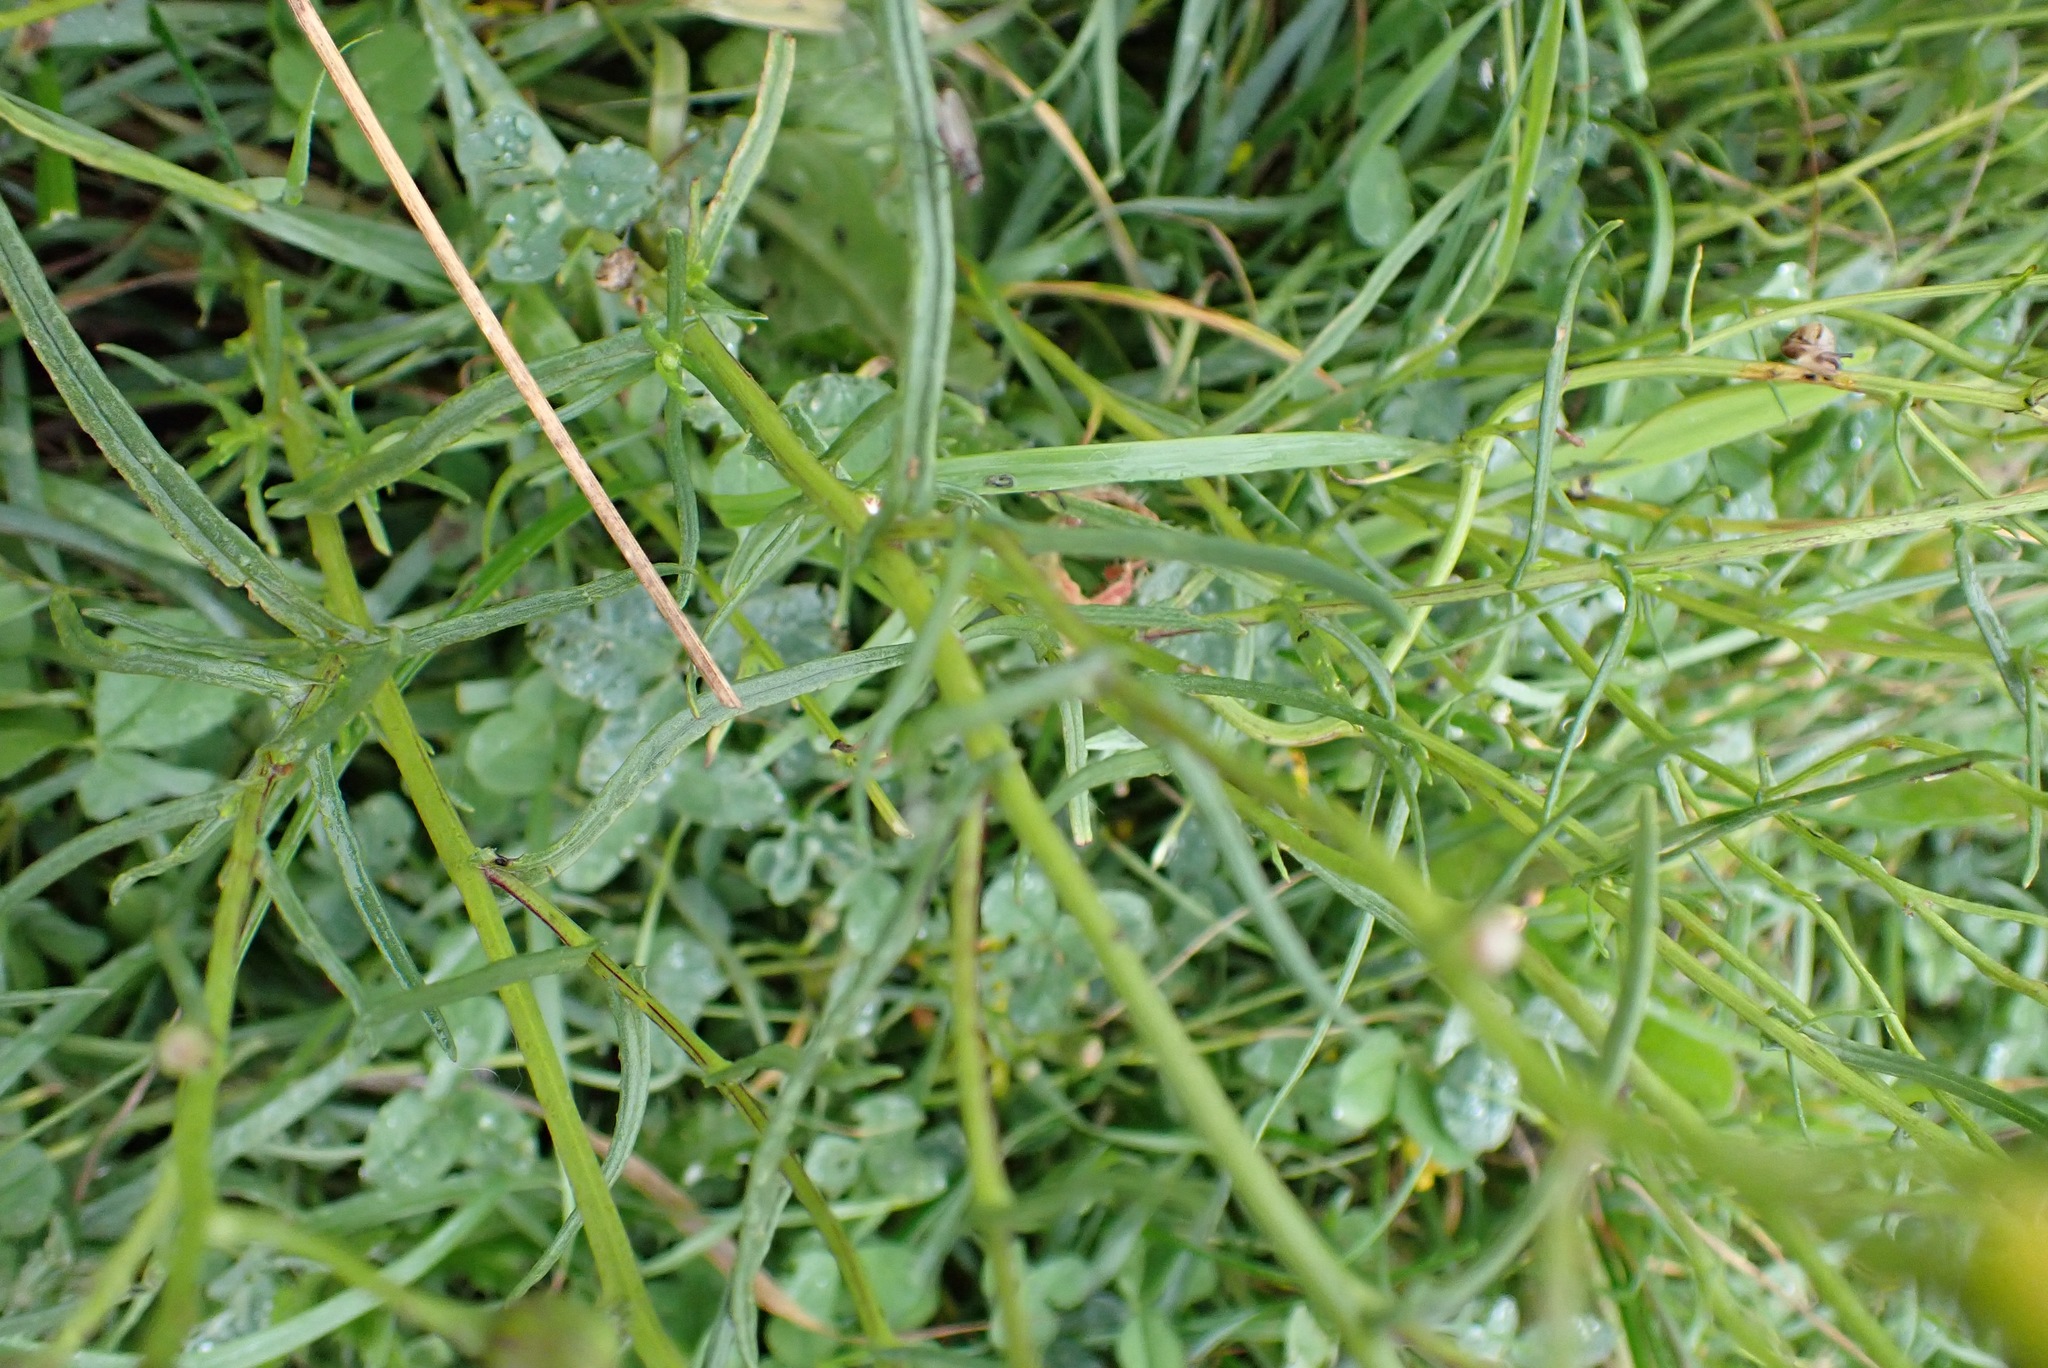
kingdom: Plantae
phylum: Tracheophyta
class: Magnoliopsida
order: Asterales
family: Asteraceae
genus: Senecio
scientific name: Senecio inaequidens
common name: Narrow-leaved ragwort
